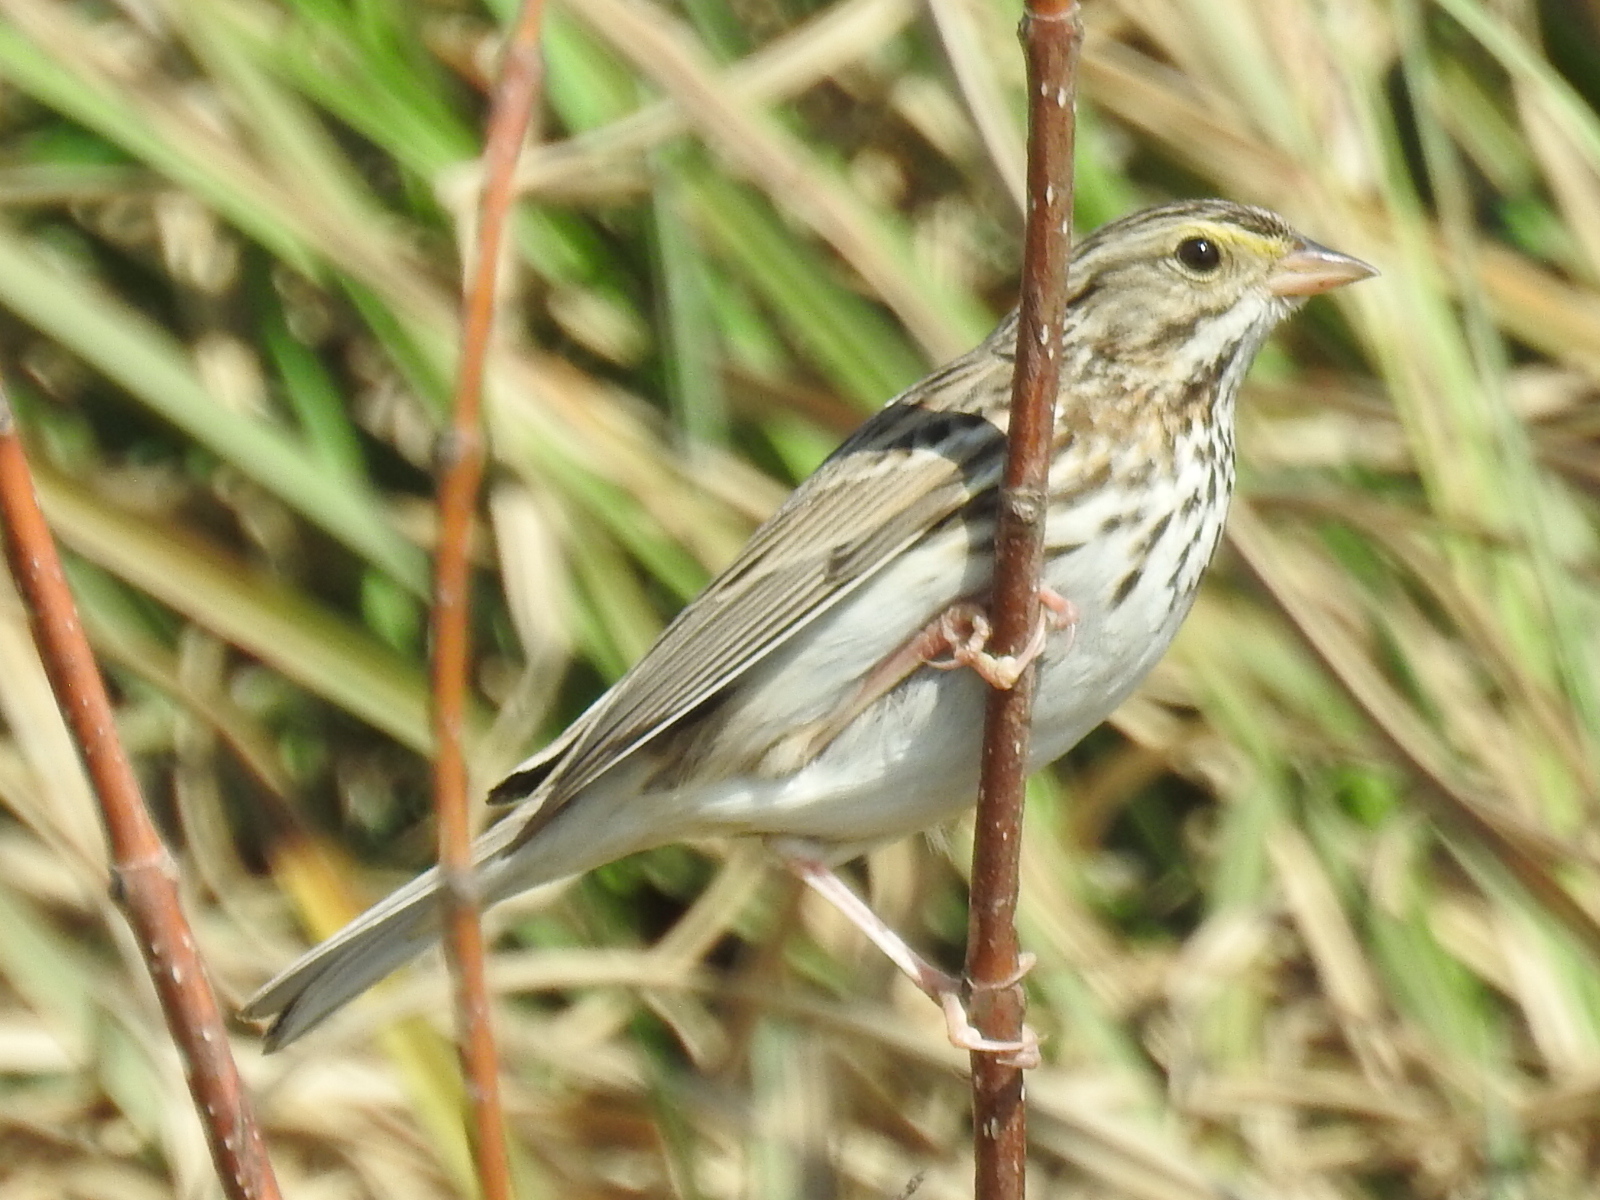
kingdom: Animalia
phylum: Chordata
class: Aves
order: Passeriformes
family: Passerellidae
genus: Passerculus
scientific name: Passerculus sandwichensis
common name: Savannah sparrow
